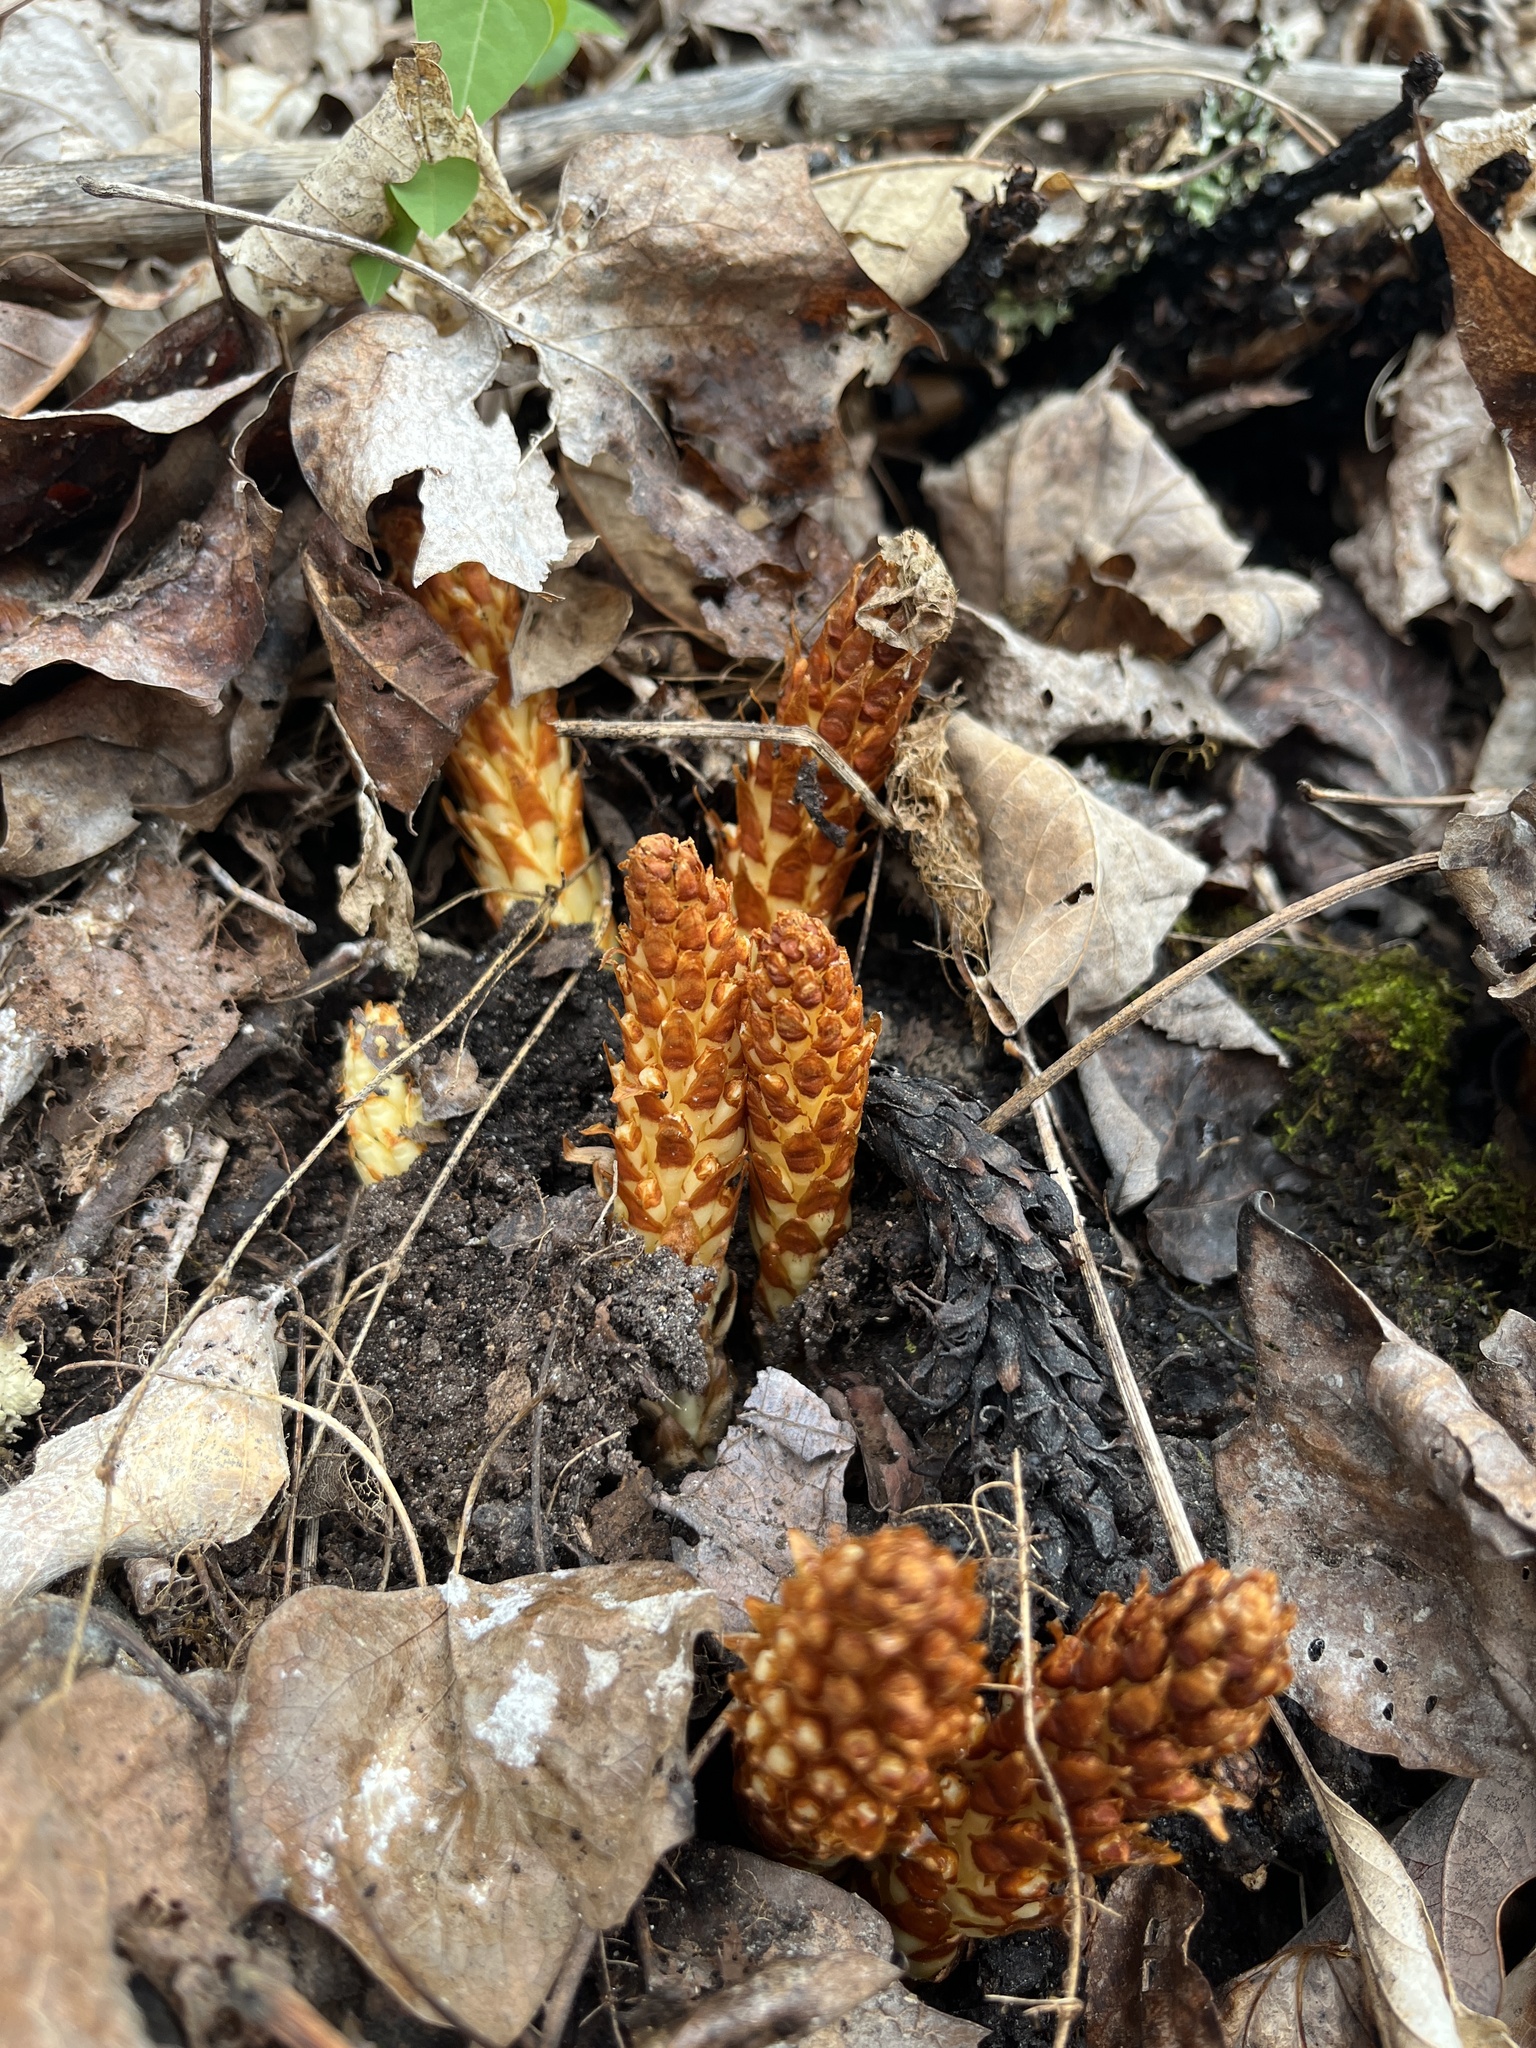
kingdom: Plantae
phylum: Tracheophyta
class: Magnoliopsida
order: Lamiales
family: Orobanchaceae
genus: Conopholis
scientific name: Conopholis americana
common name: American cancer-root
